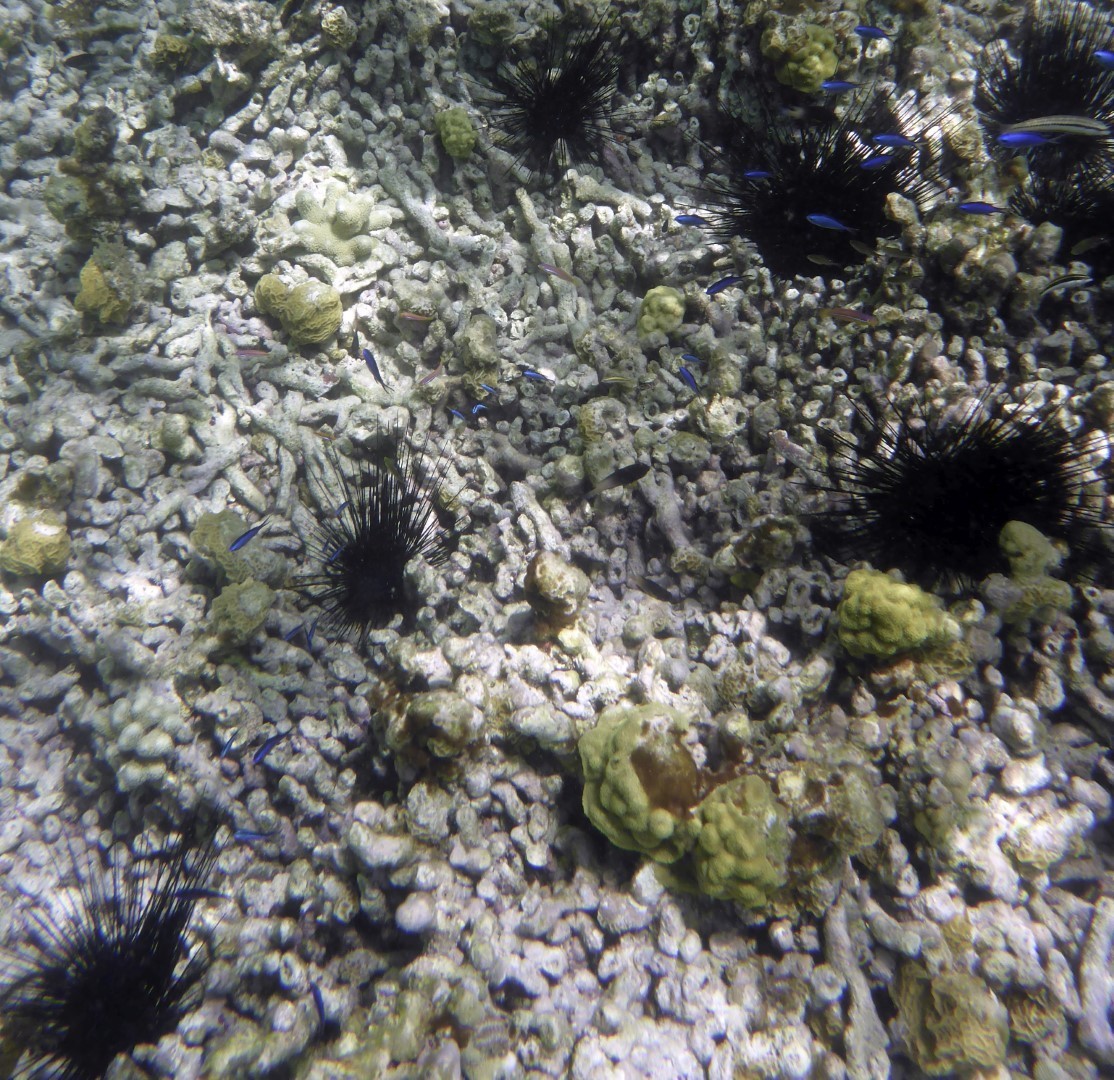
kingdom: Animalia
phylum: Echinodermata
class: Echinoidea
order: Diadematoida
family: Diadematidae
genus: Diadema
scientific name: Diadema antillarum
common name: Spiny urchin
